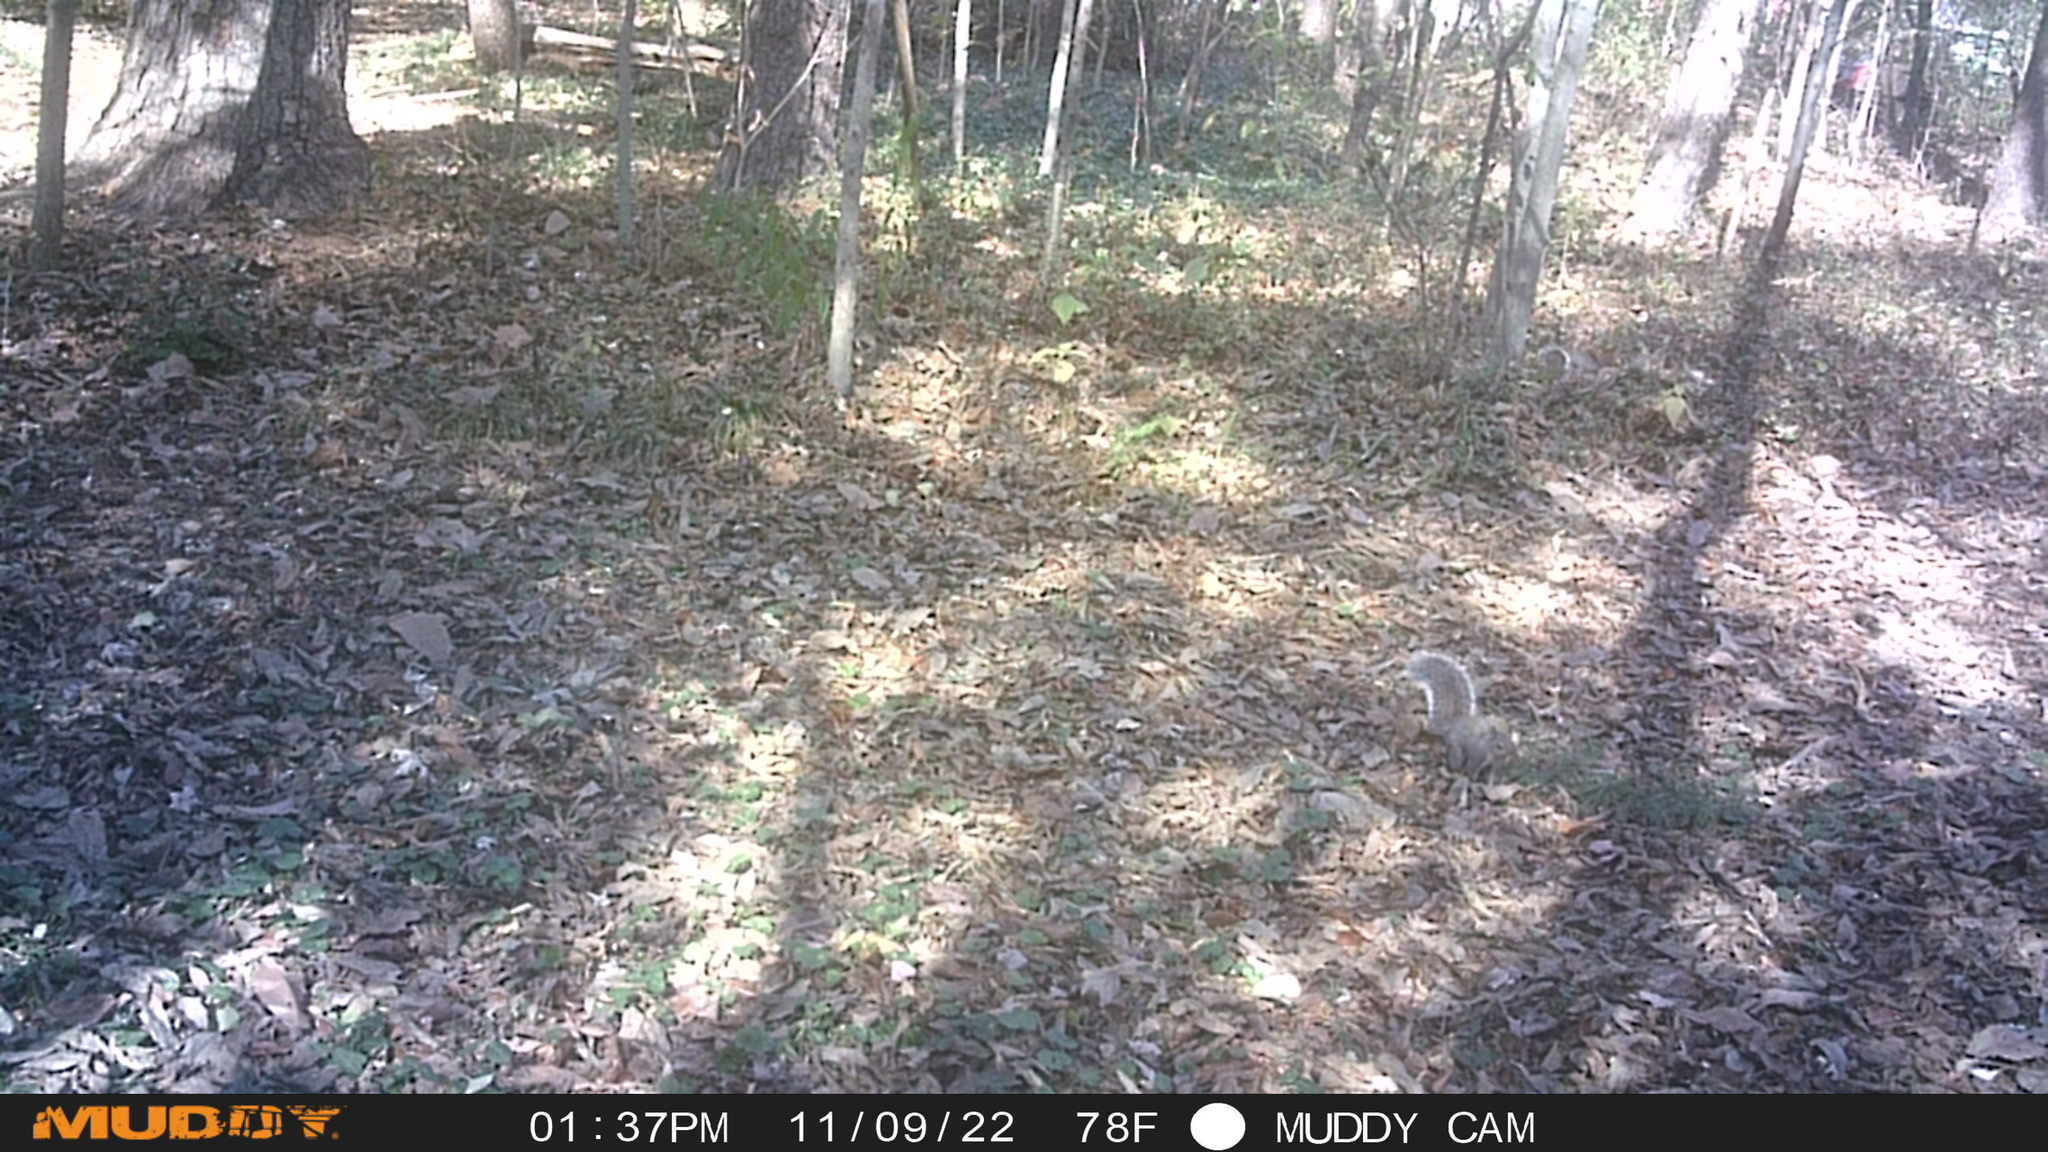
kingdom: Animalia
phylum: Chordata
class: Mammalia
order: Rodentia
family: Sciuridae
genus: Sciurus
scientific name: Sciurus carolinensis
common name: Eastern gray squirrel
